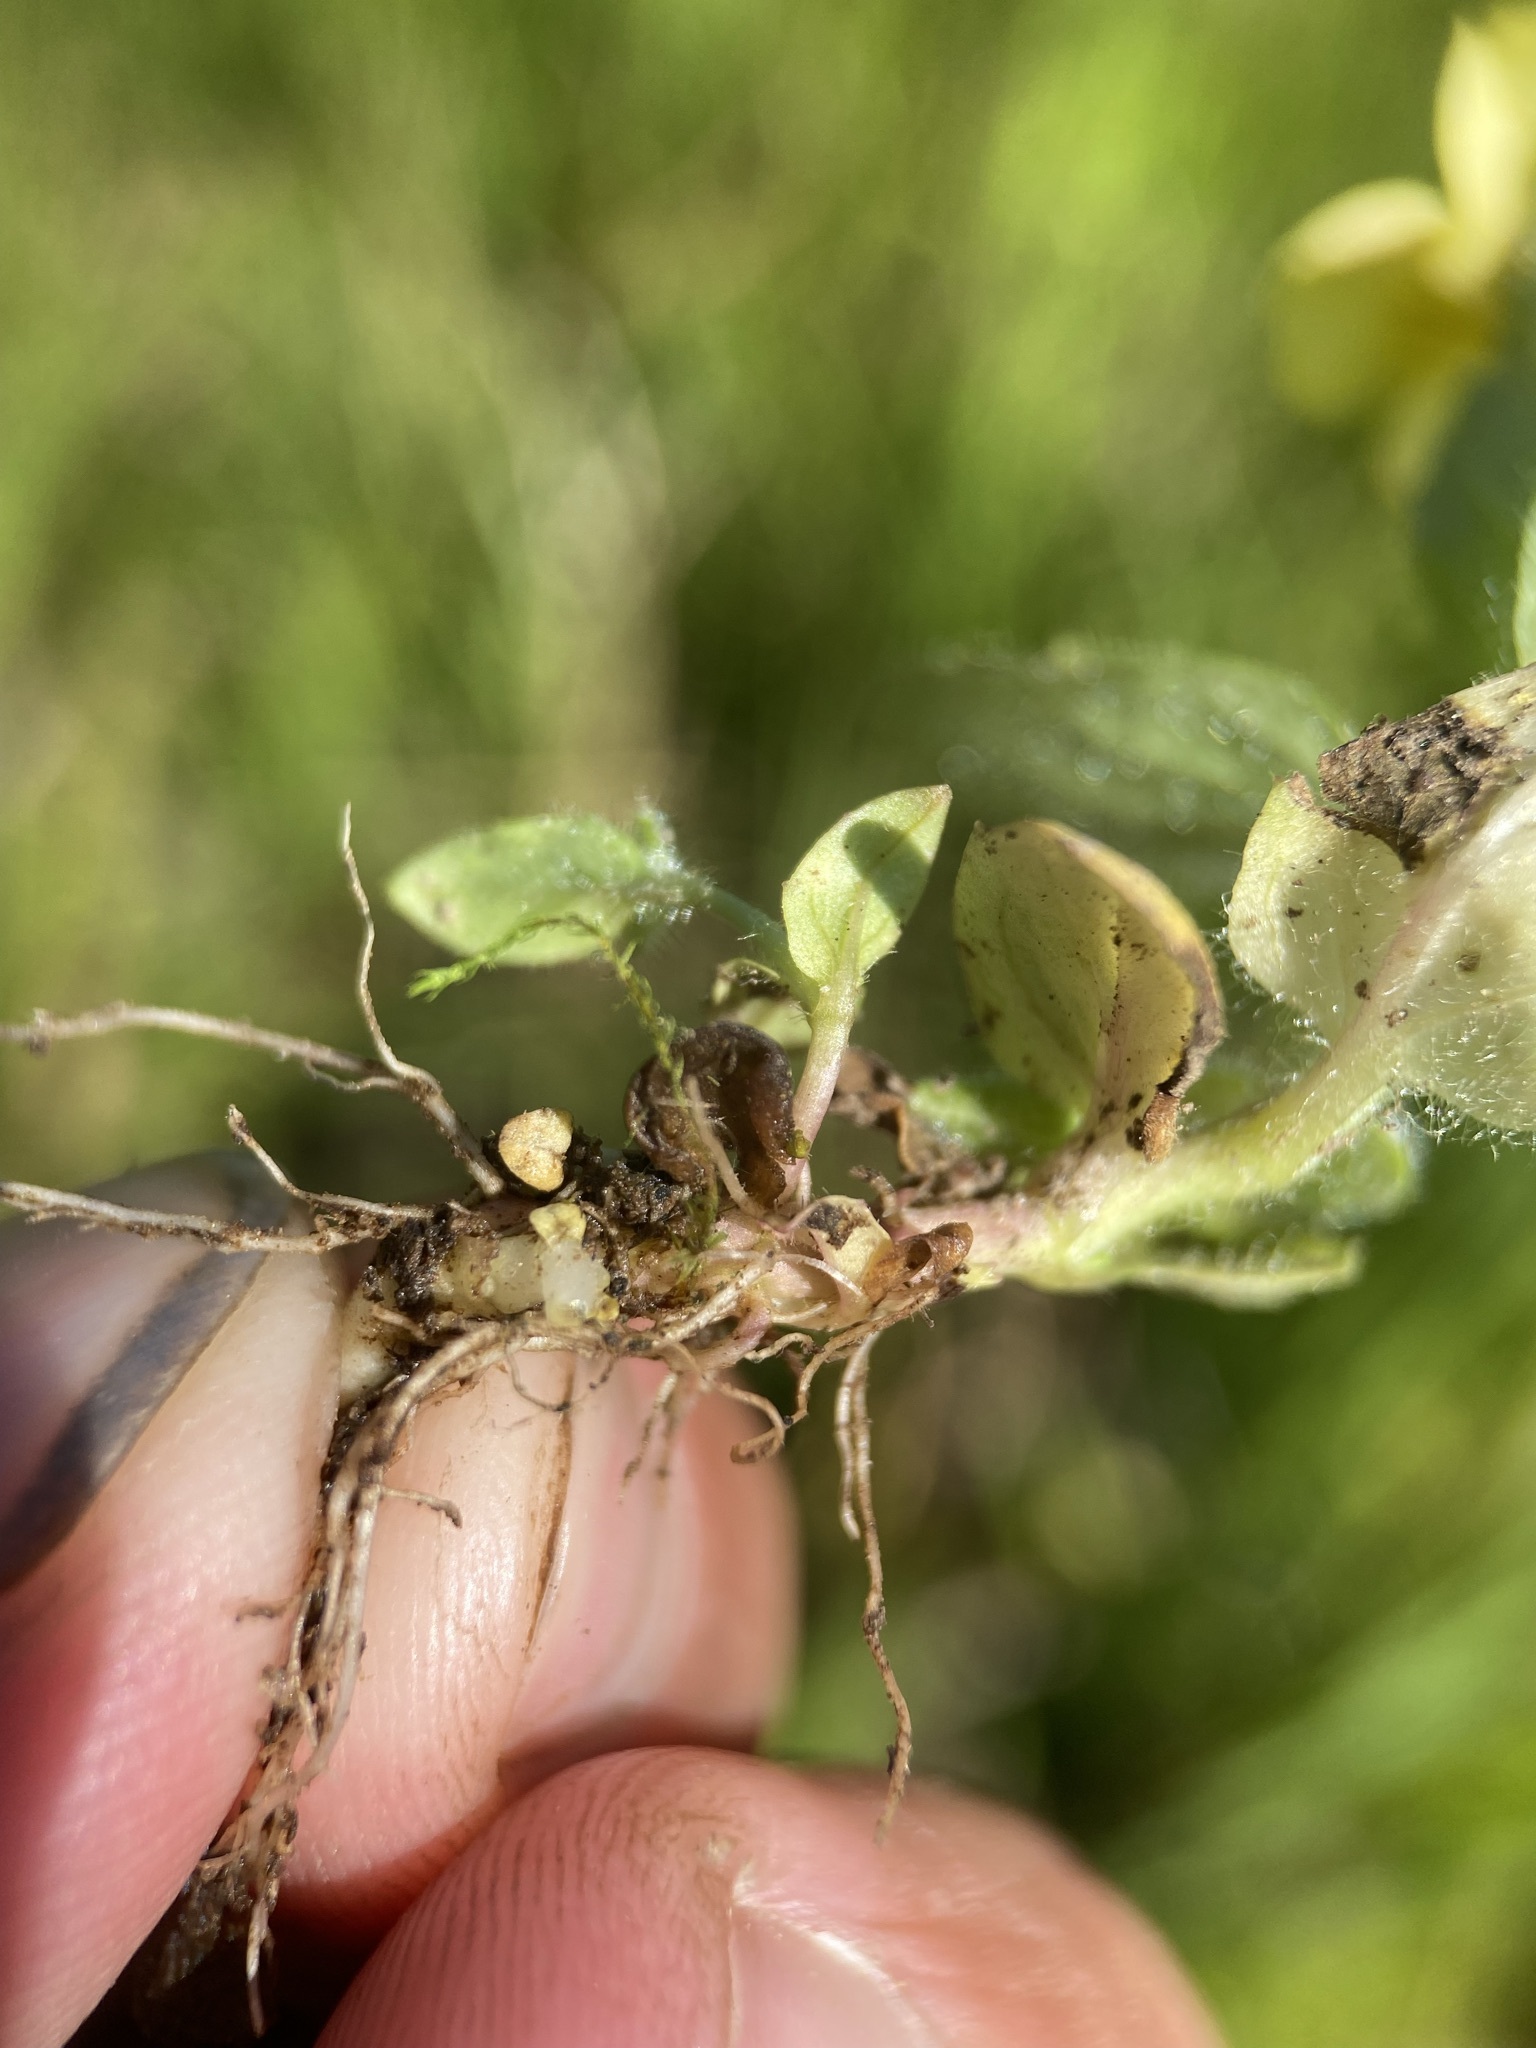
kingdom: Plantae
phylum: Tracheophyta
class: Magnoliopsida
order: Lamiales
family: Phrymaceae
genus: Erythranthe
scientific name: Erythranthe moschata
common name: Muskflower
